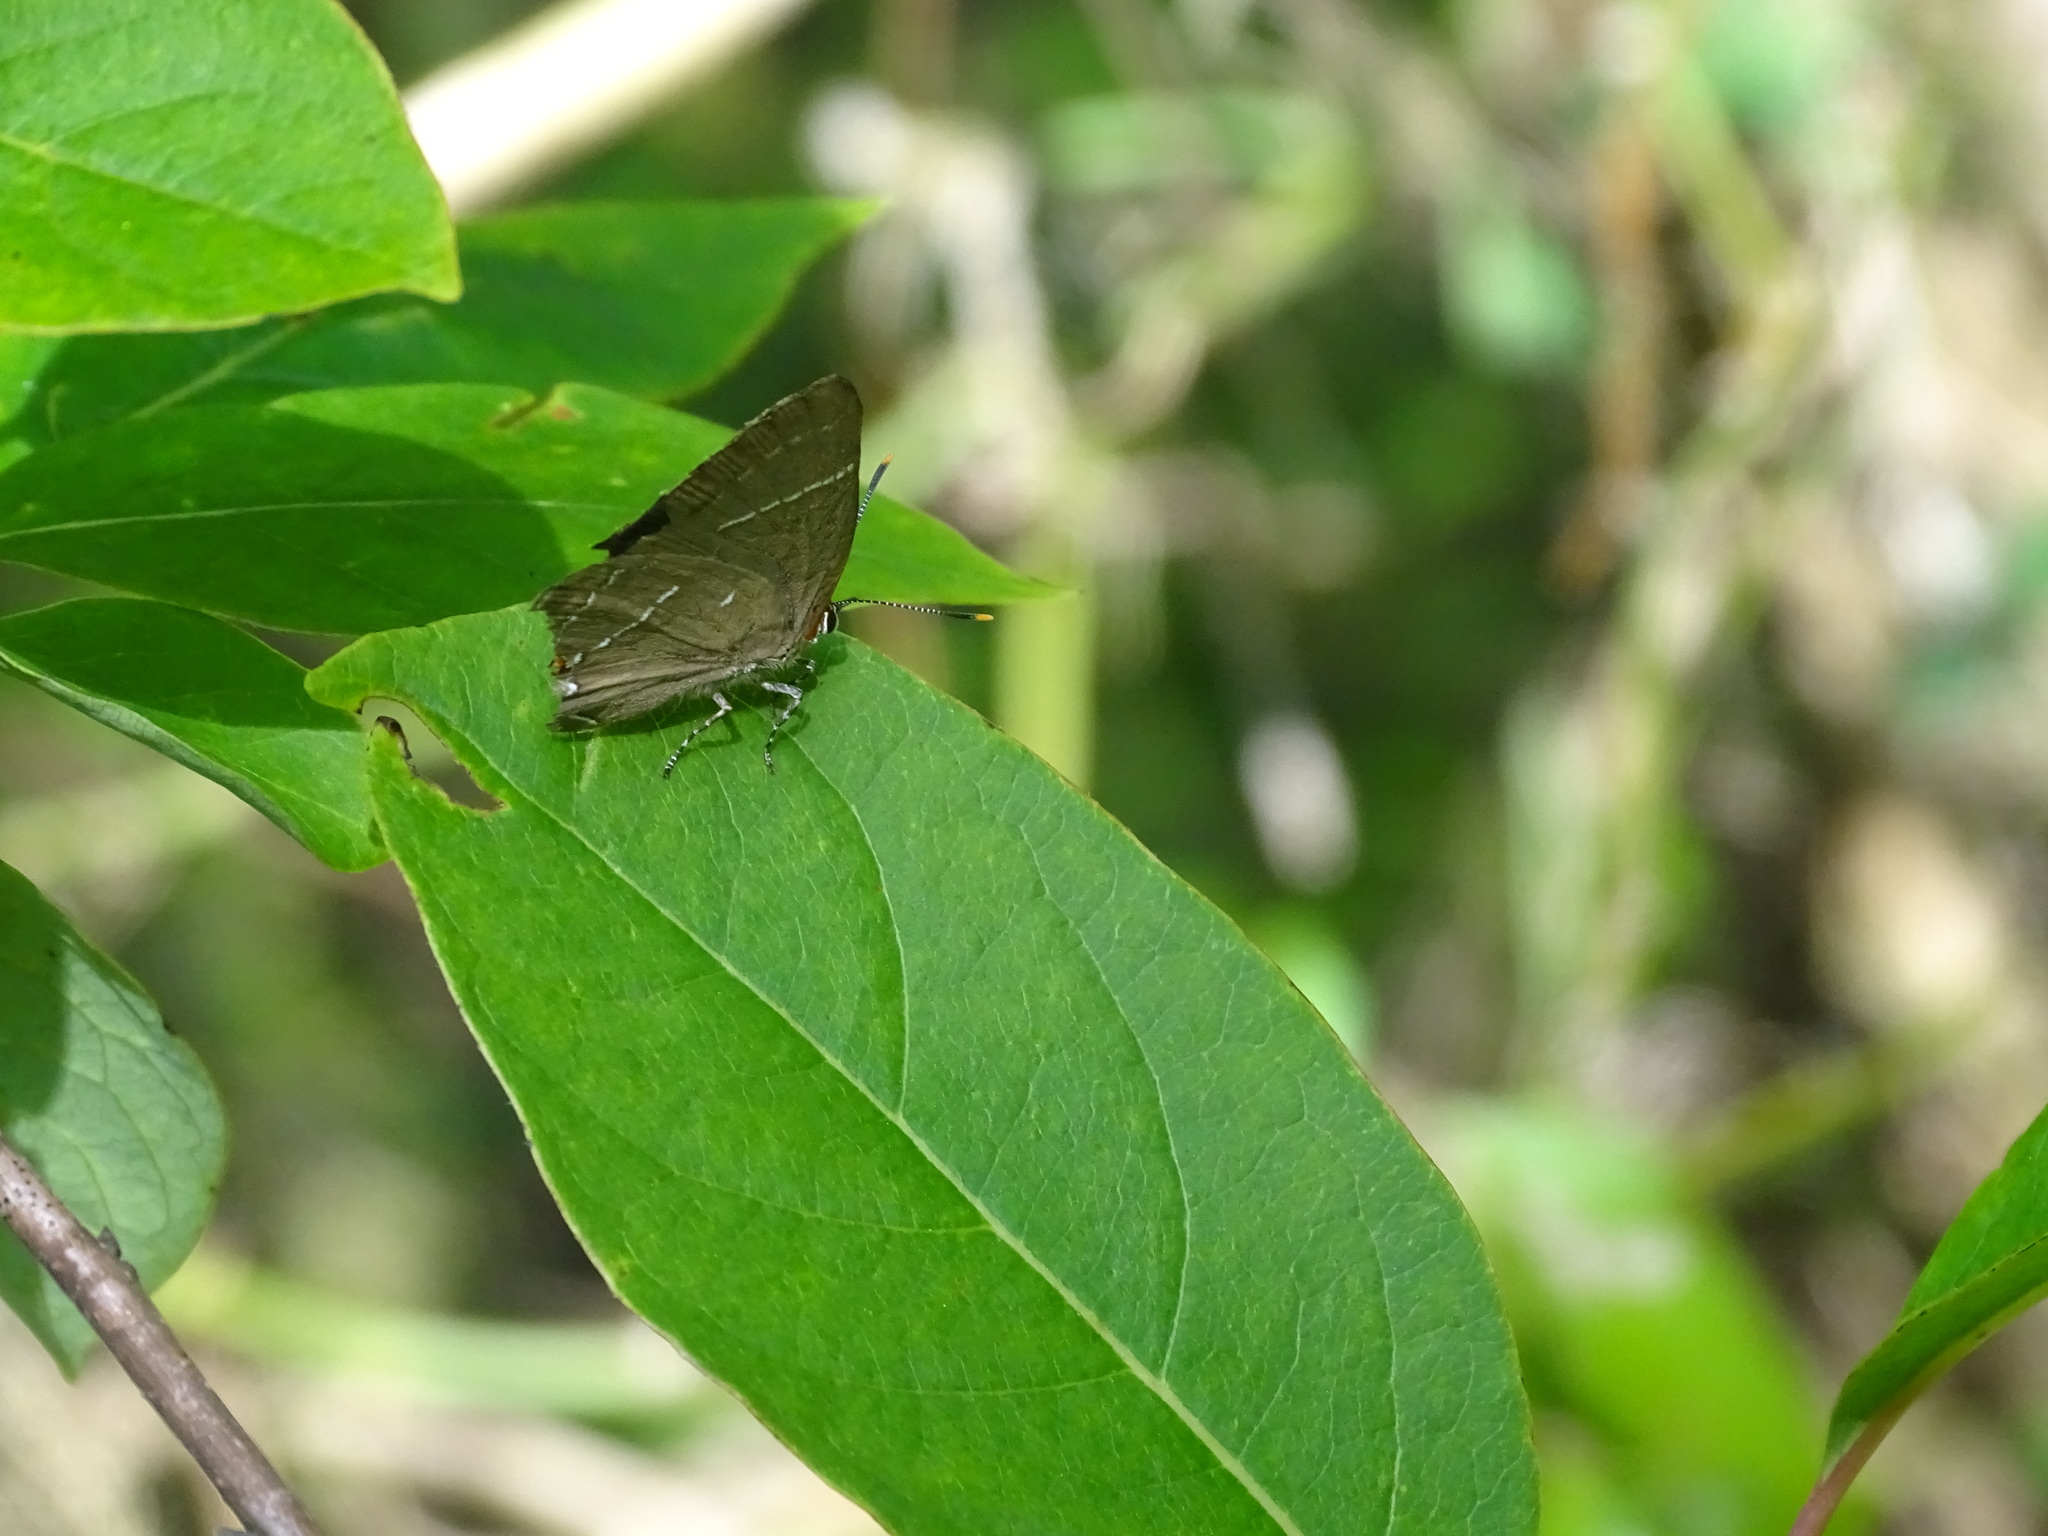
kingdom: Animalia
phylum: Arthropoda
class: Insecta
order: Lepidoptera
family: Lycaenidae
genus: Parrhasius
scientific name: Parrhasius m-album
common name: White m hairstreak
